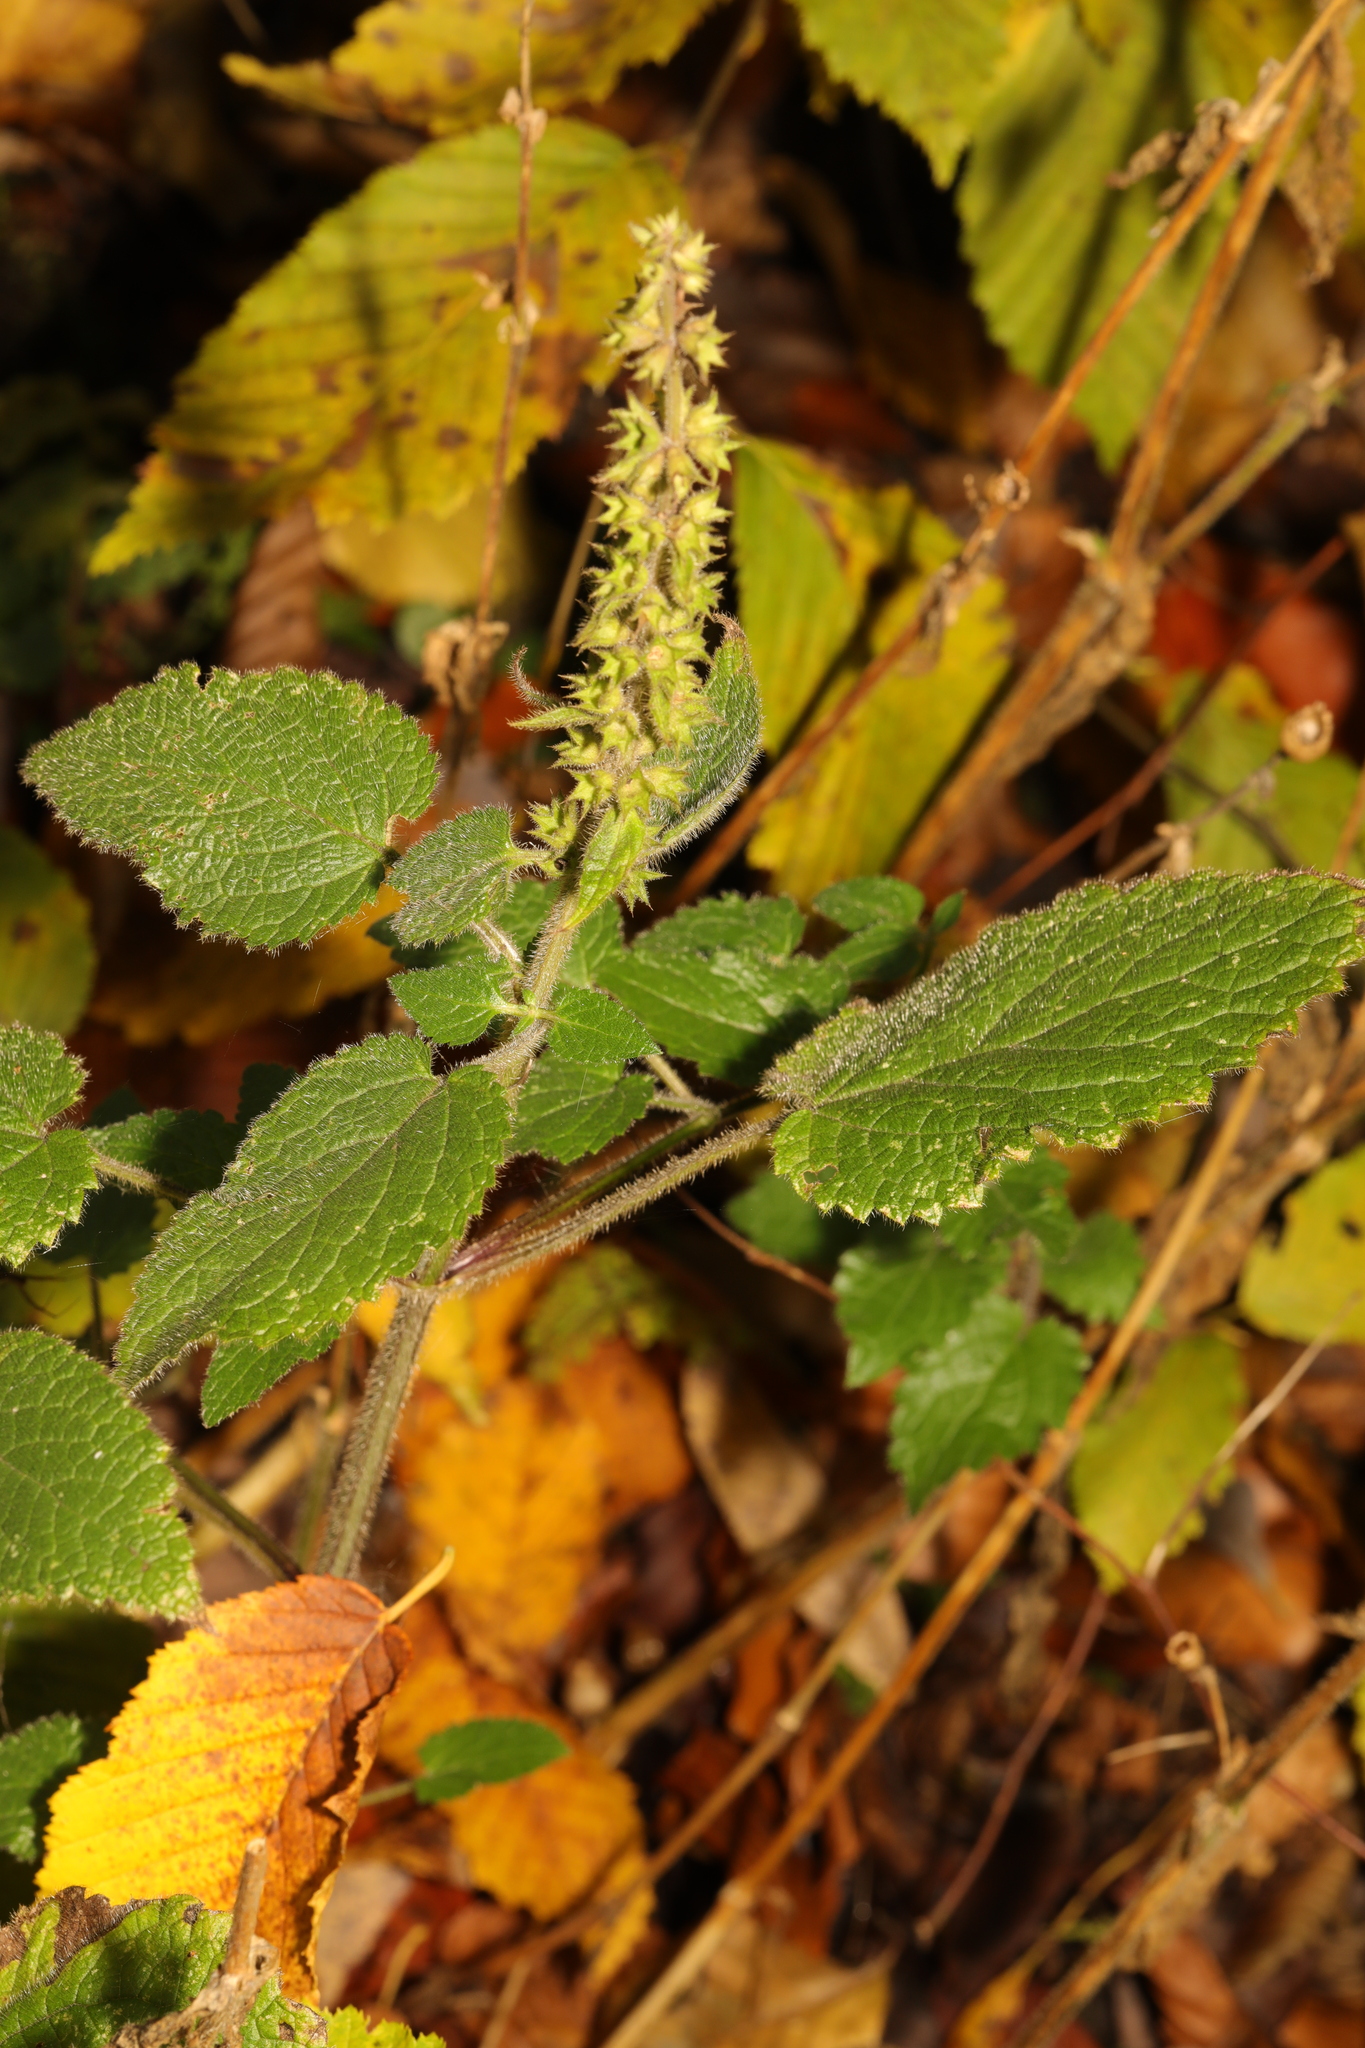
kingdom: Plantae
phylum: Tracheophyta
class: Magnoliopsida
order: Lamiales
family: Lamiaceae
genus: Stachys
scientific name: Stachys sylvatica
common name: Hedge woundwort
